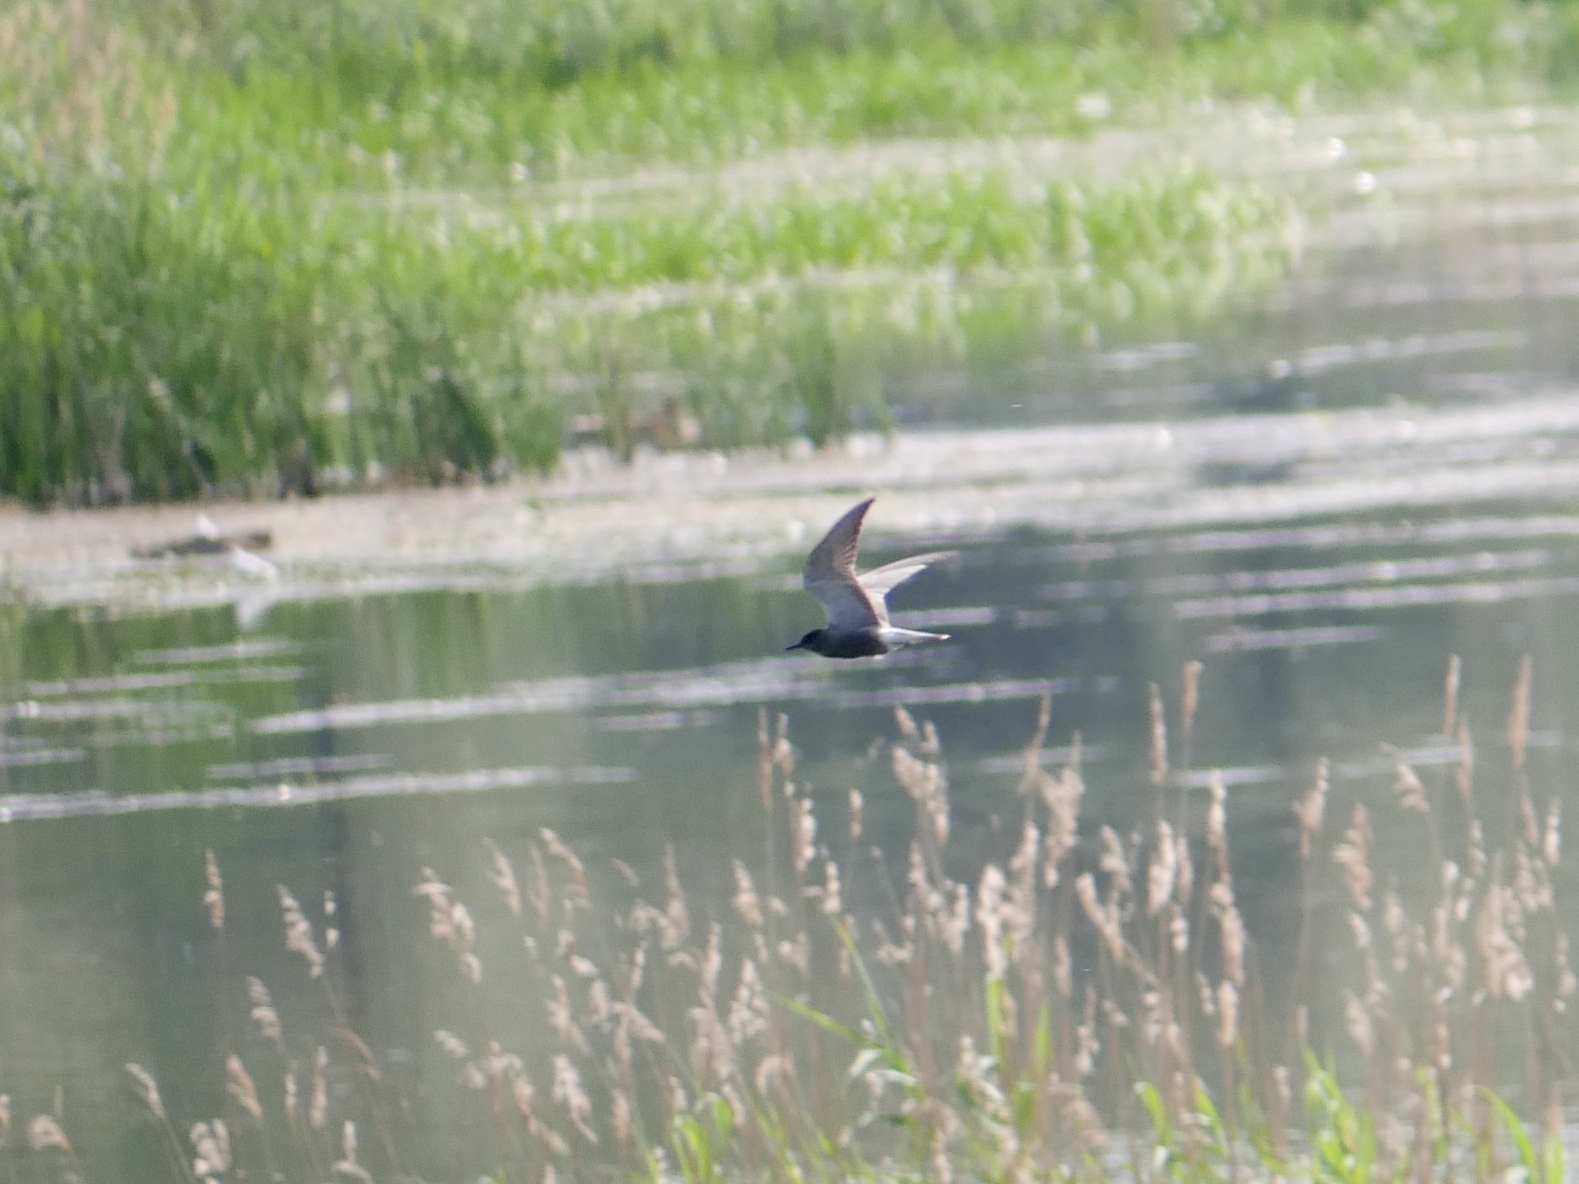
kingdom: Animalia
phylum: Chordata
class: Aves
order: Charadriiformes
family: Laridae
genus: Chlidonias
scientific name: Chlidonias niger
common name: Black tern
